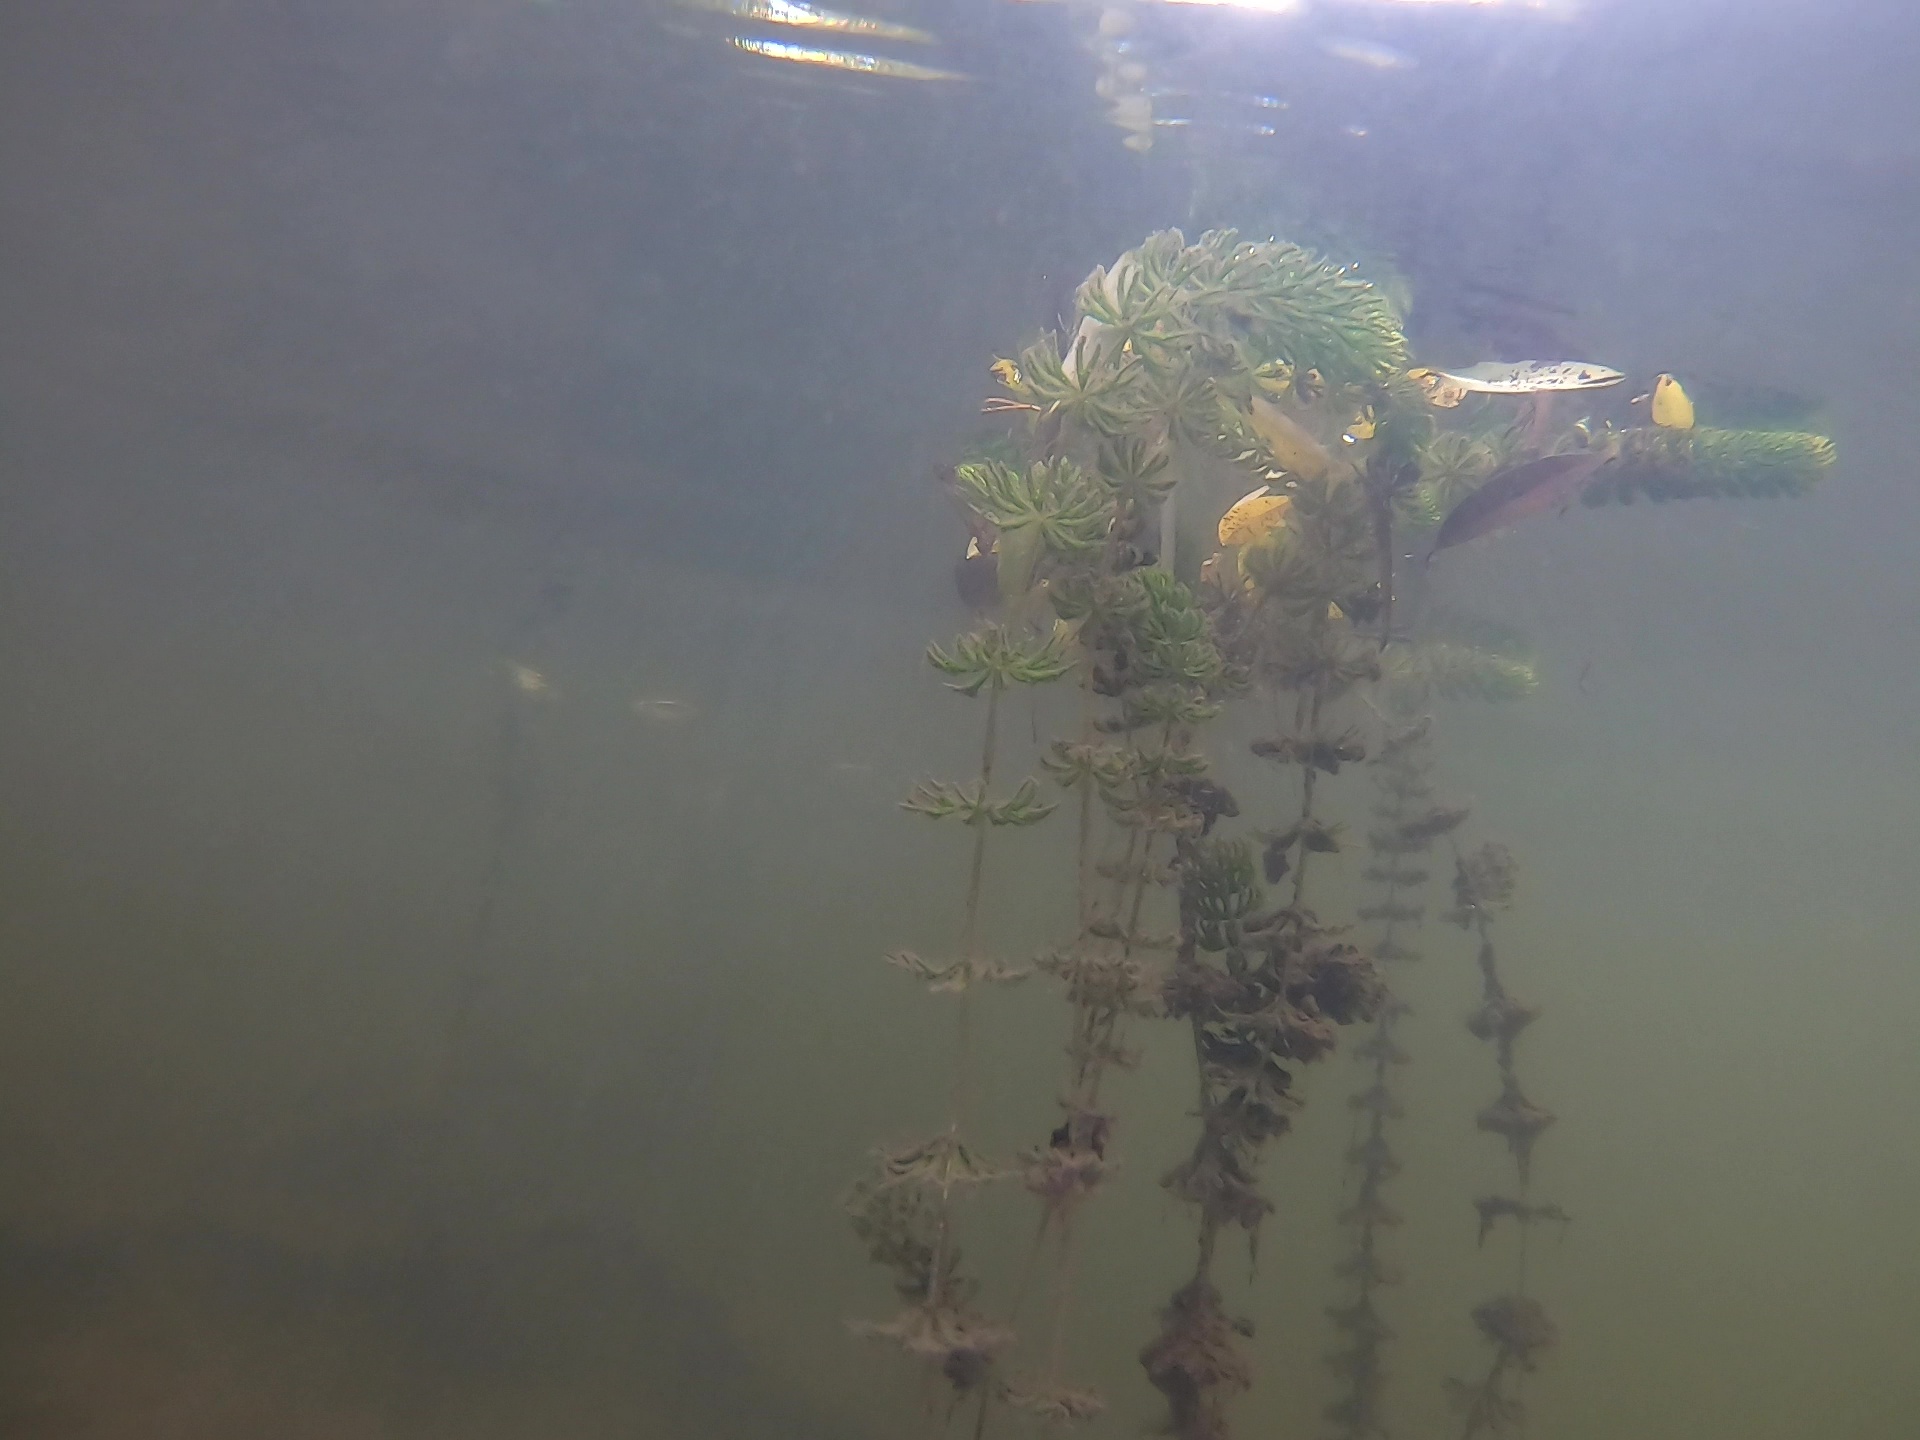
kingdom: Plantae
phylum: Tracheophyta
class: Magnoliopsida
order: Ceratophyllales
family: Ceratophyllaceae
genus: Ceratophyllum
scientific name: Ceratophyllum demersum
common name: Rigid hornwort
